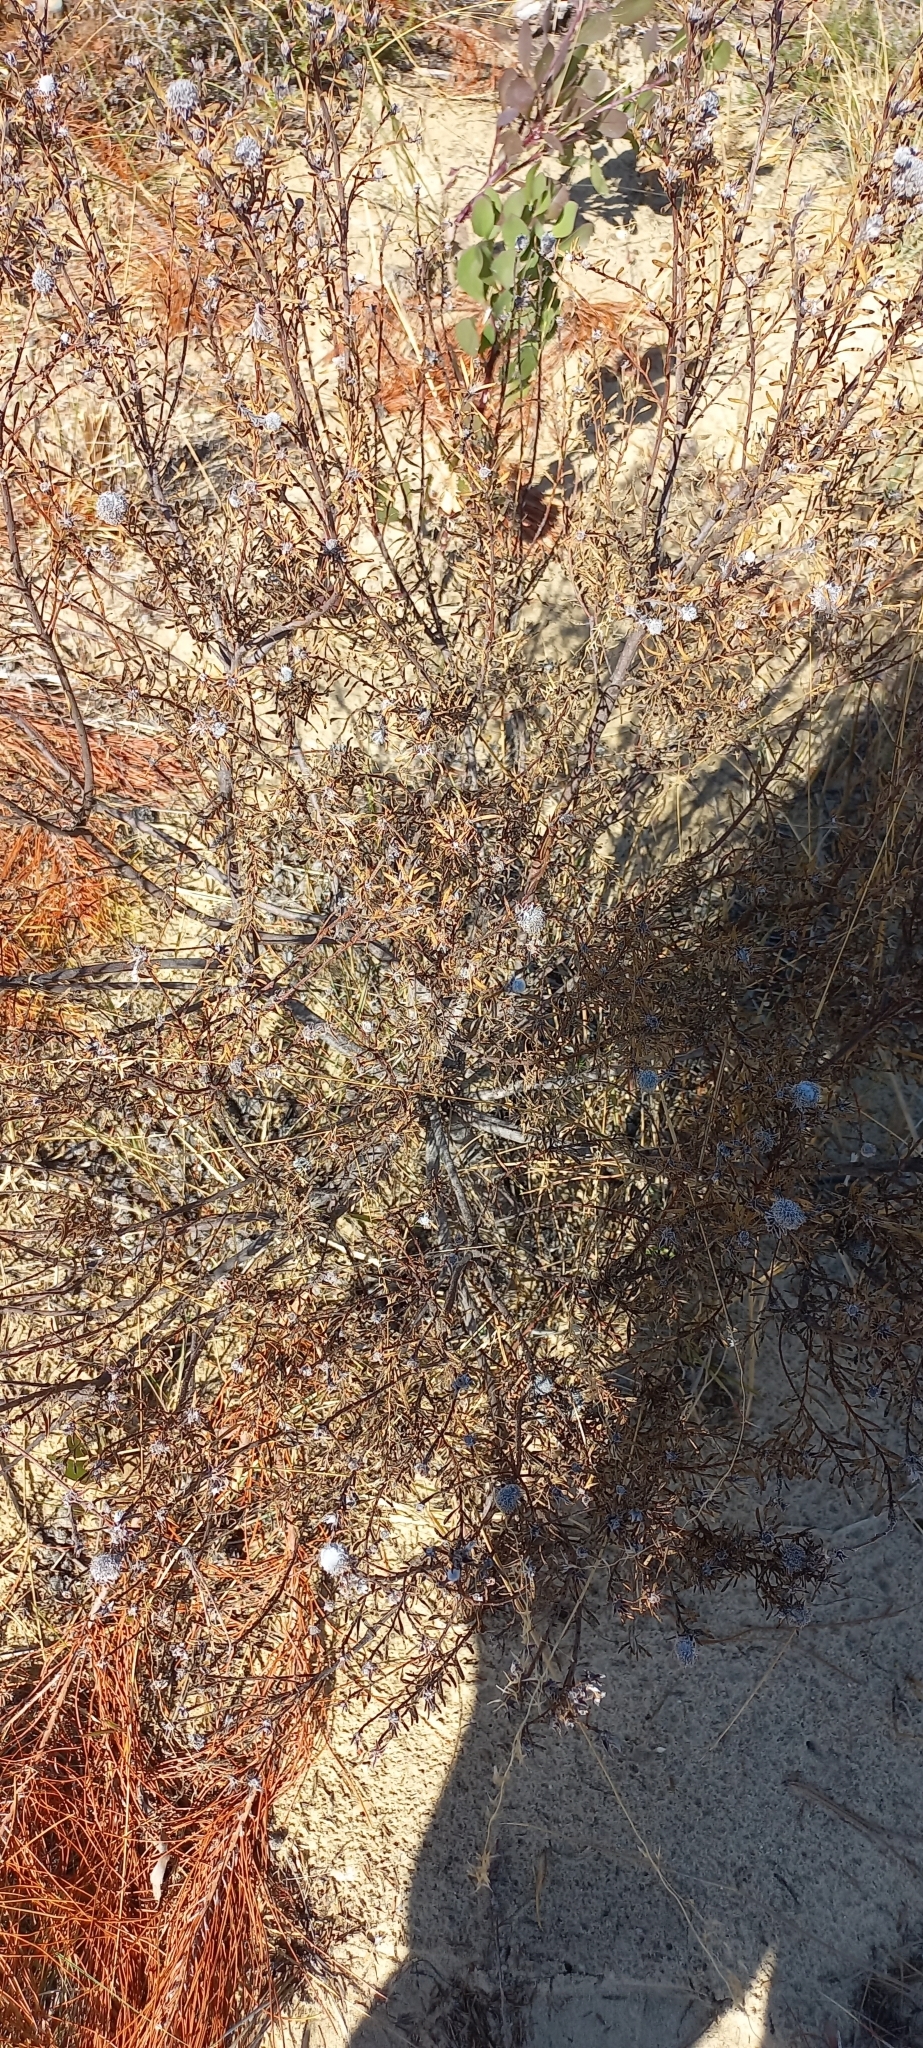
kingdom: Plantae
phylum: Tracheophyta
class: Magnoliopsida
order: Proteales
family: Proteaceae
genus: Leucadendron
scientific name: Leucadendron linifolium
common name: Line-leaf conebush
